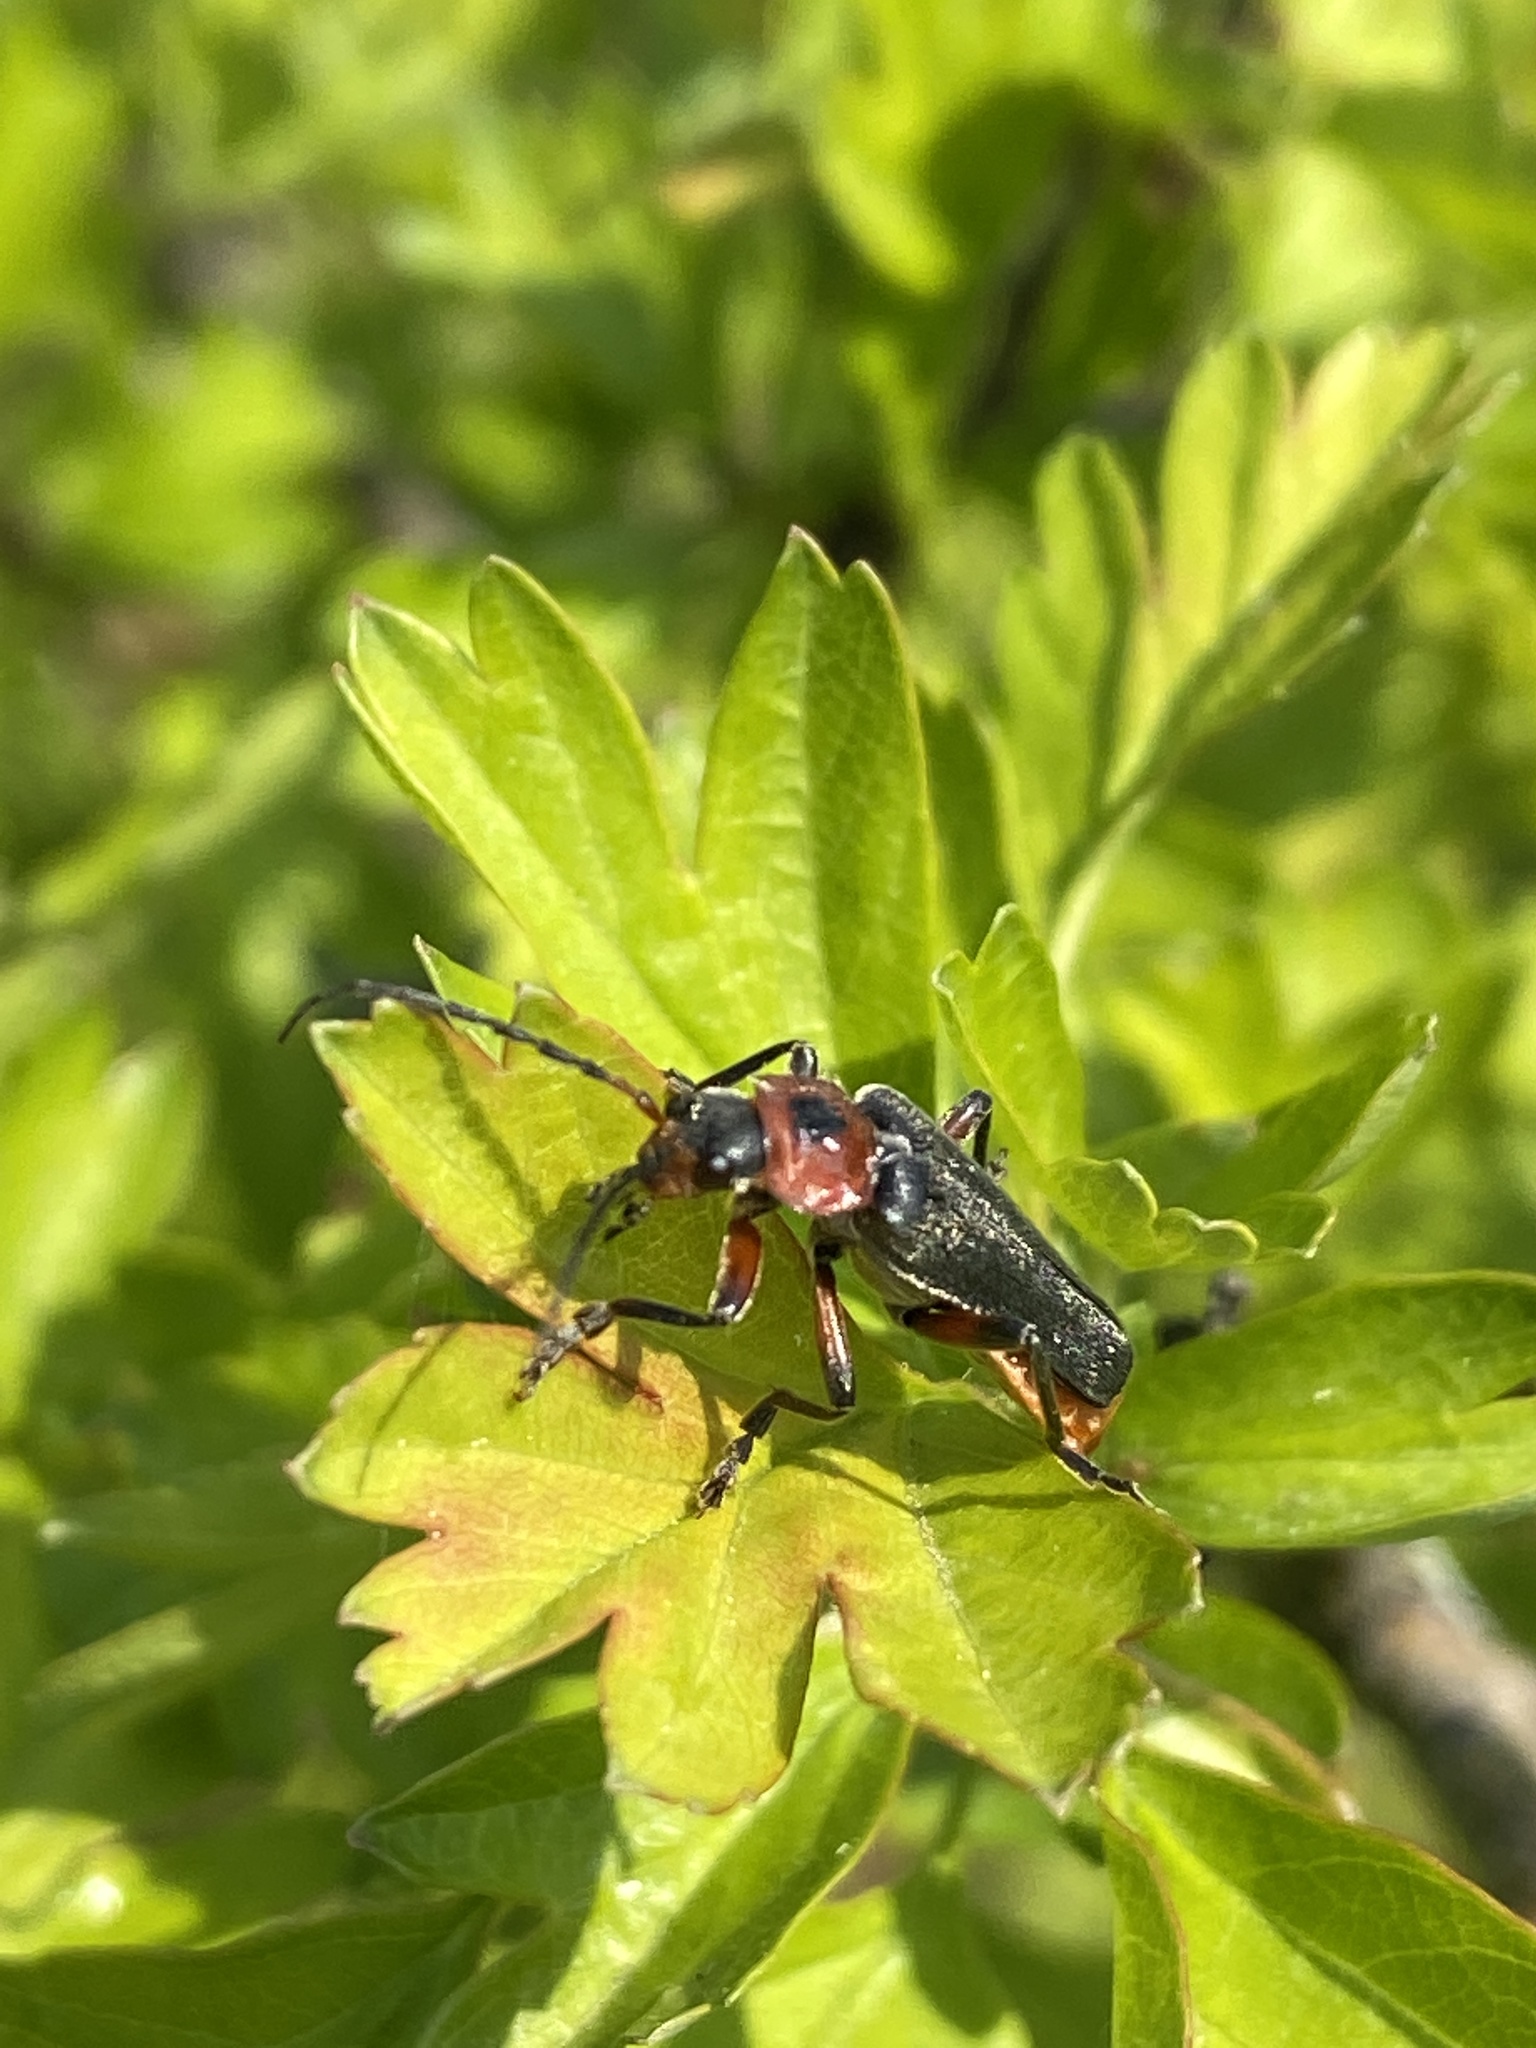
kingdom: Animalia
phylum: Arthropoda
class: Insecta
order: Coleoptera
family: Cantharidae
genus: Cantharis
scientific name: Cantharis rustica
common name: Soldier beetle
